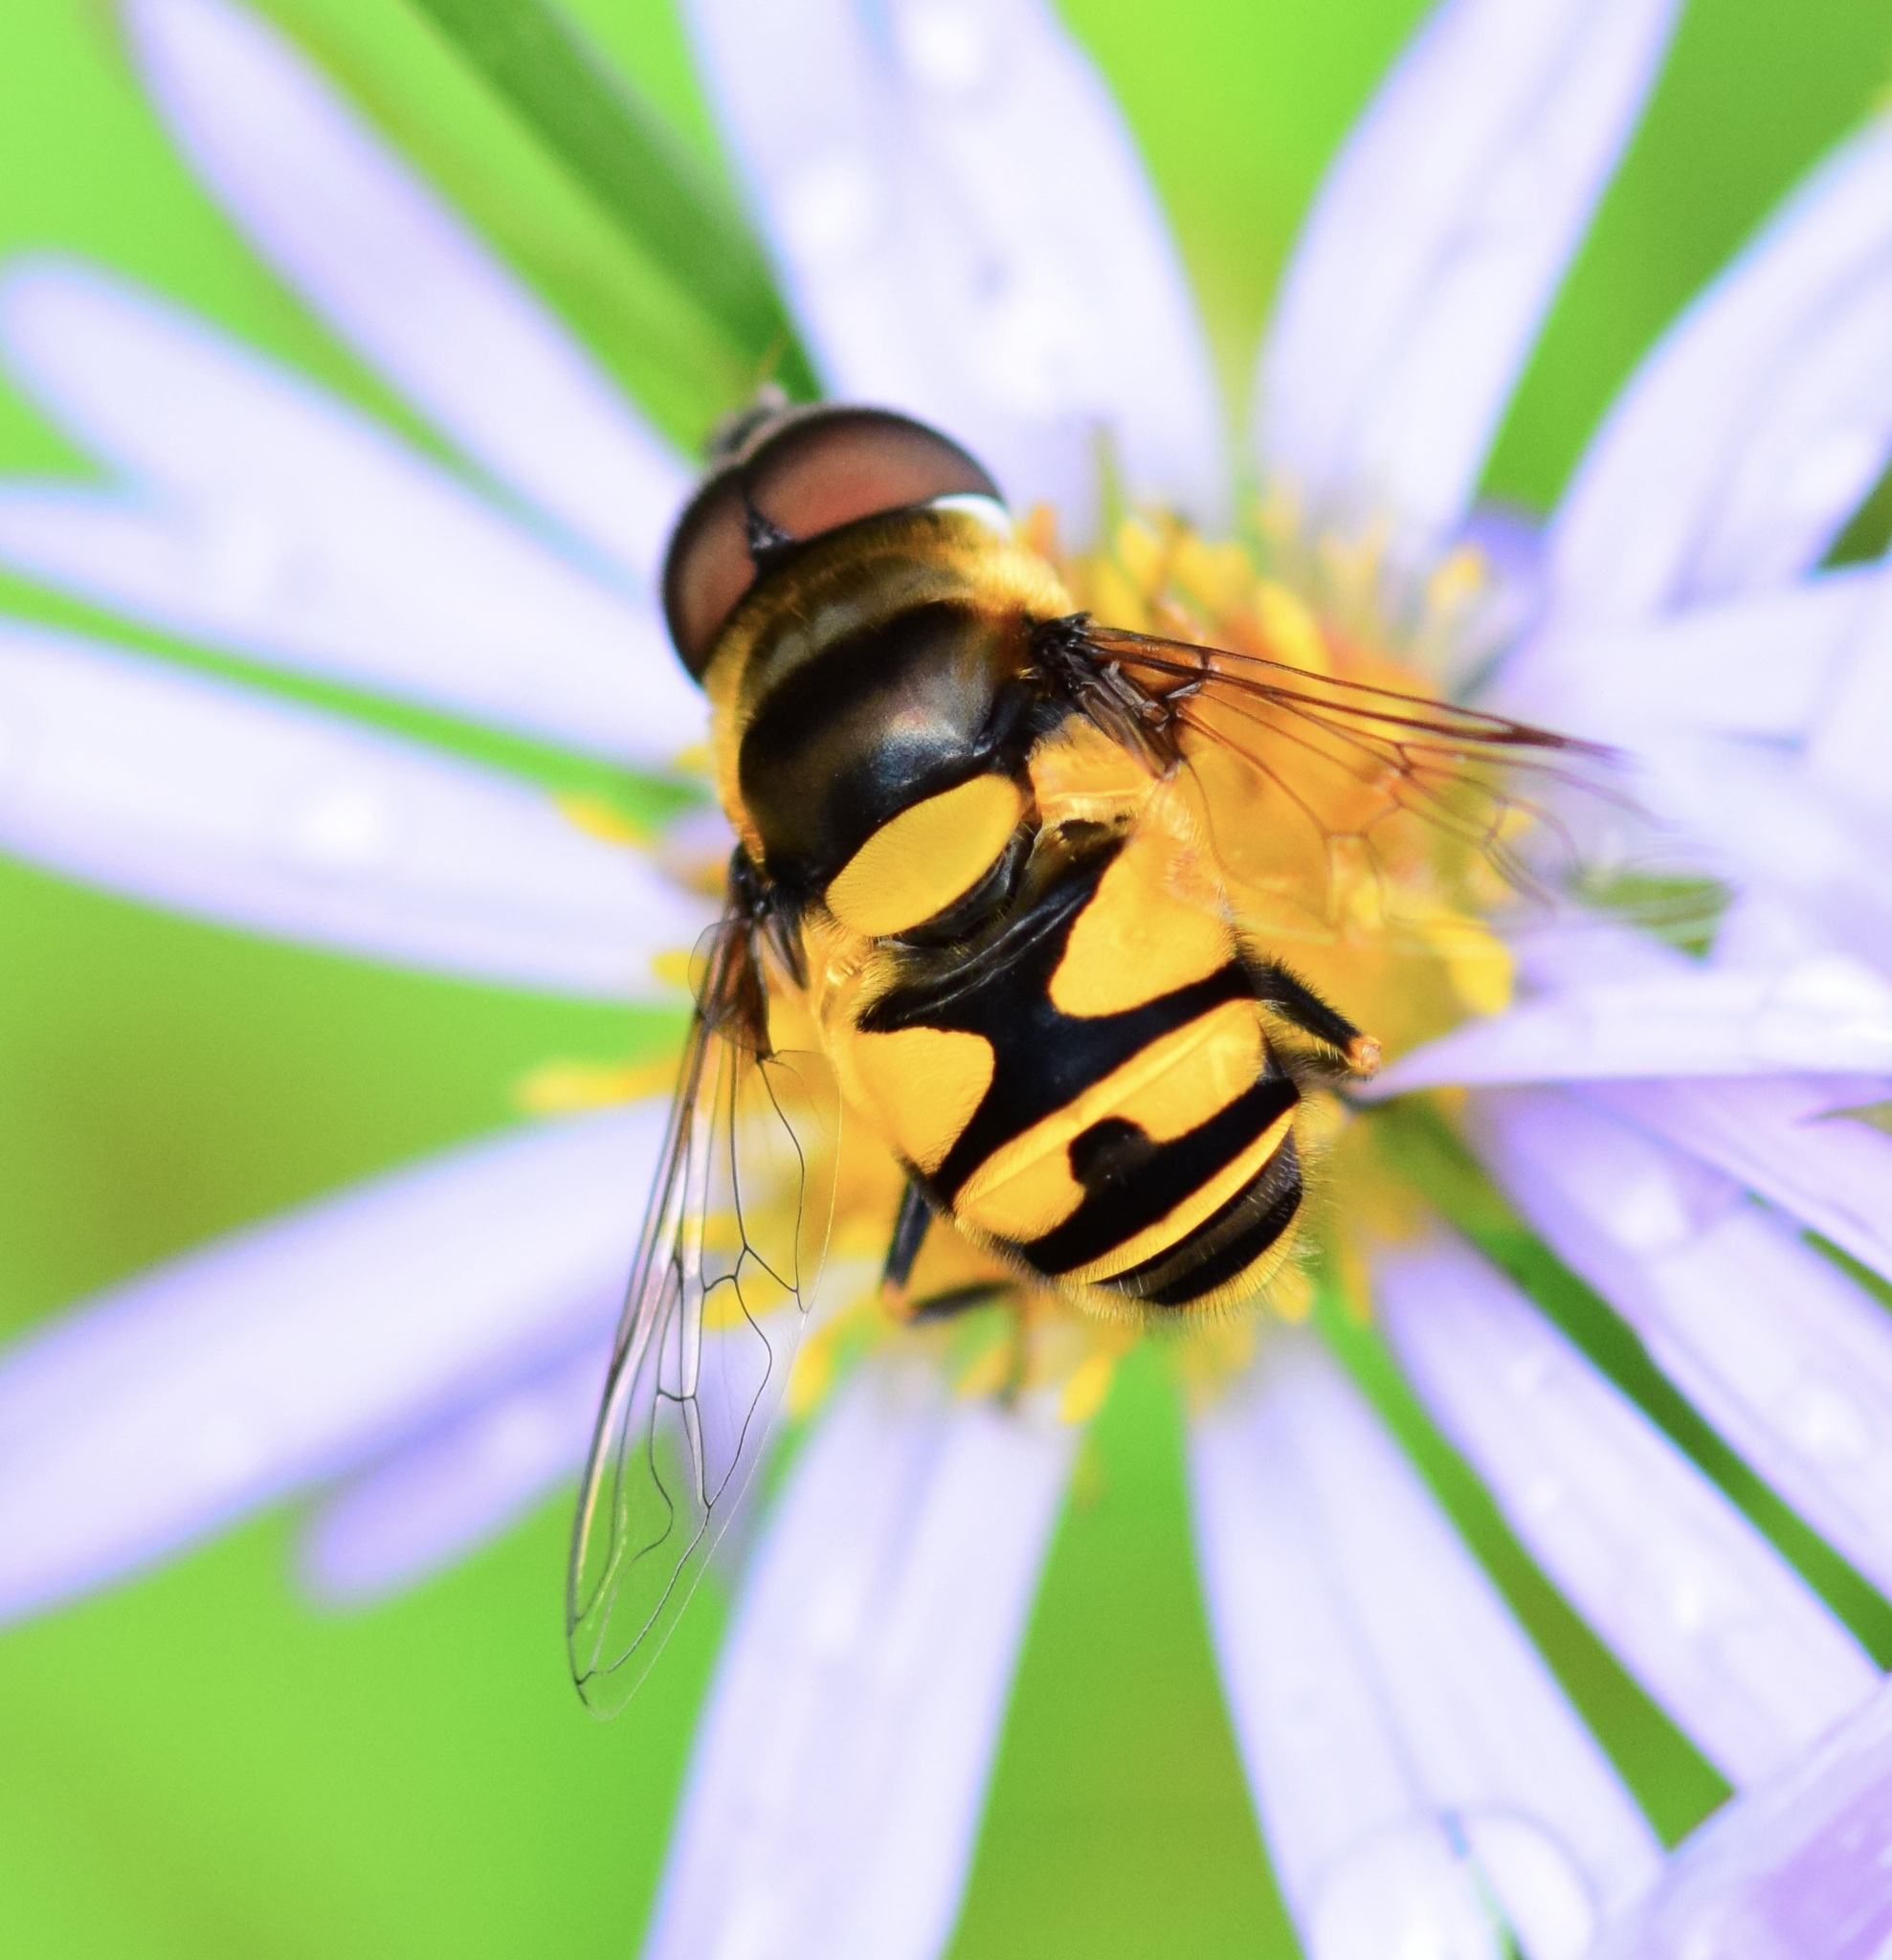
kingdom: Animalia
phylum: Arthropoda
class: Insecta
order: Diptera
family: Syrphidae
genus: Eristalis
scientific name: Eristalis transversa
